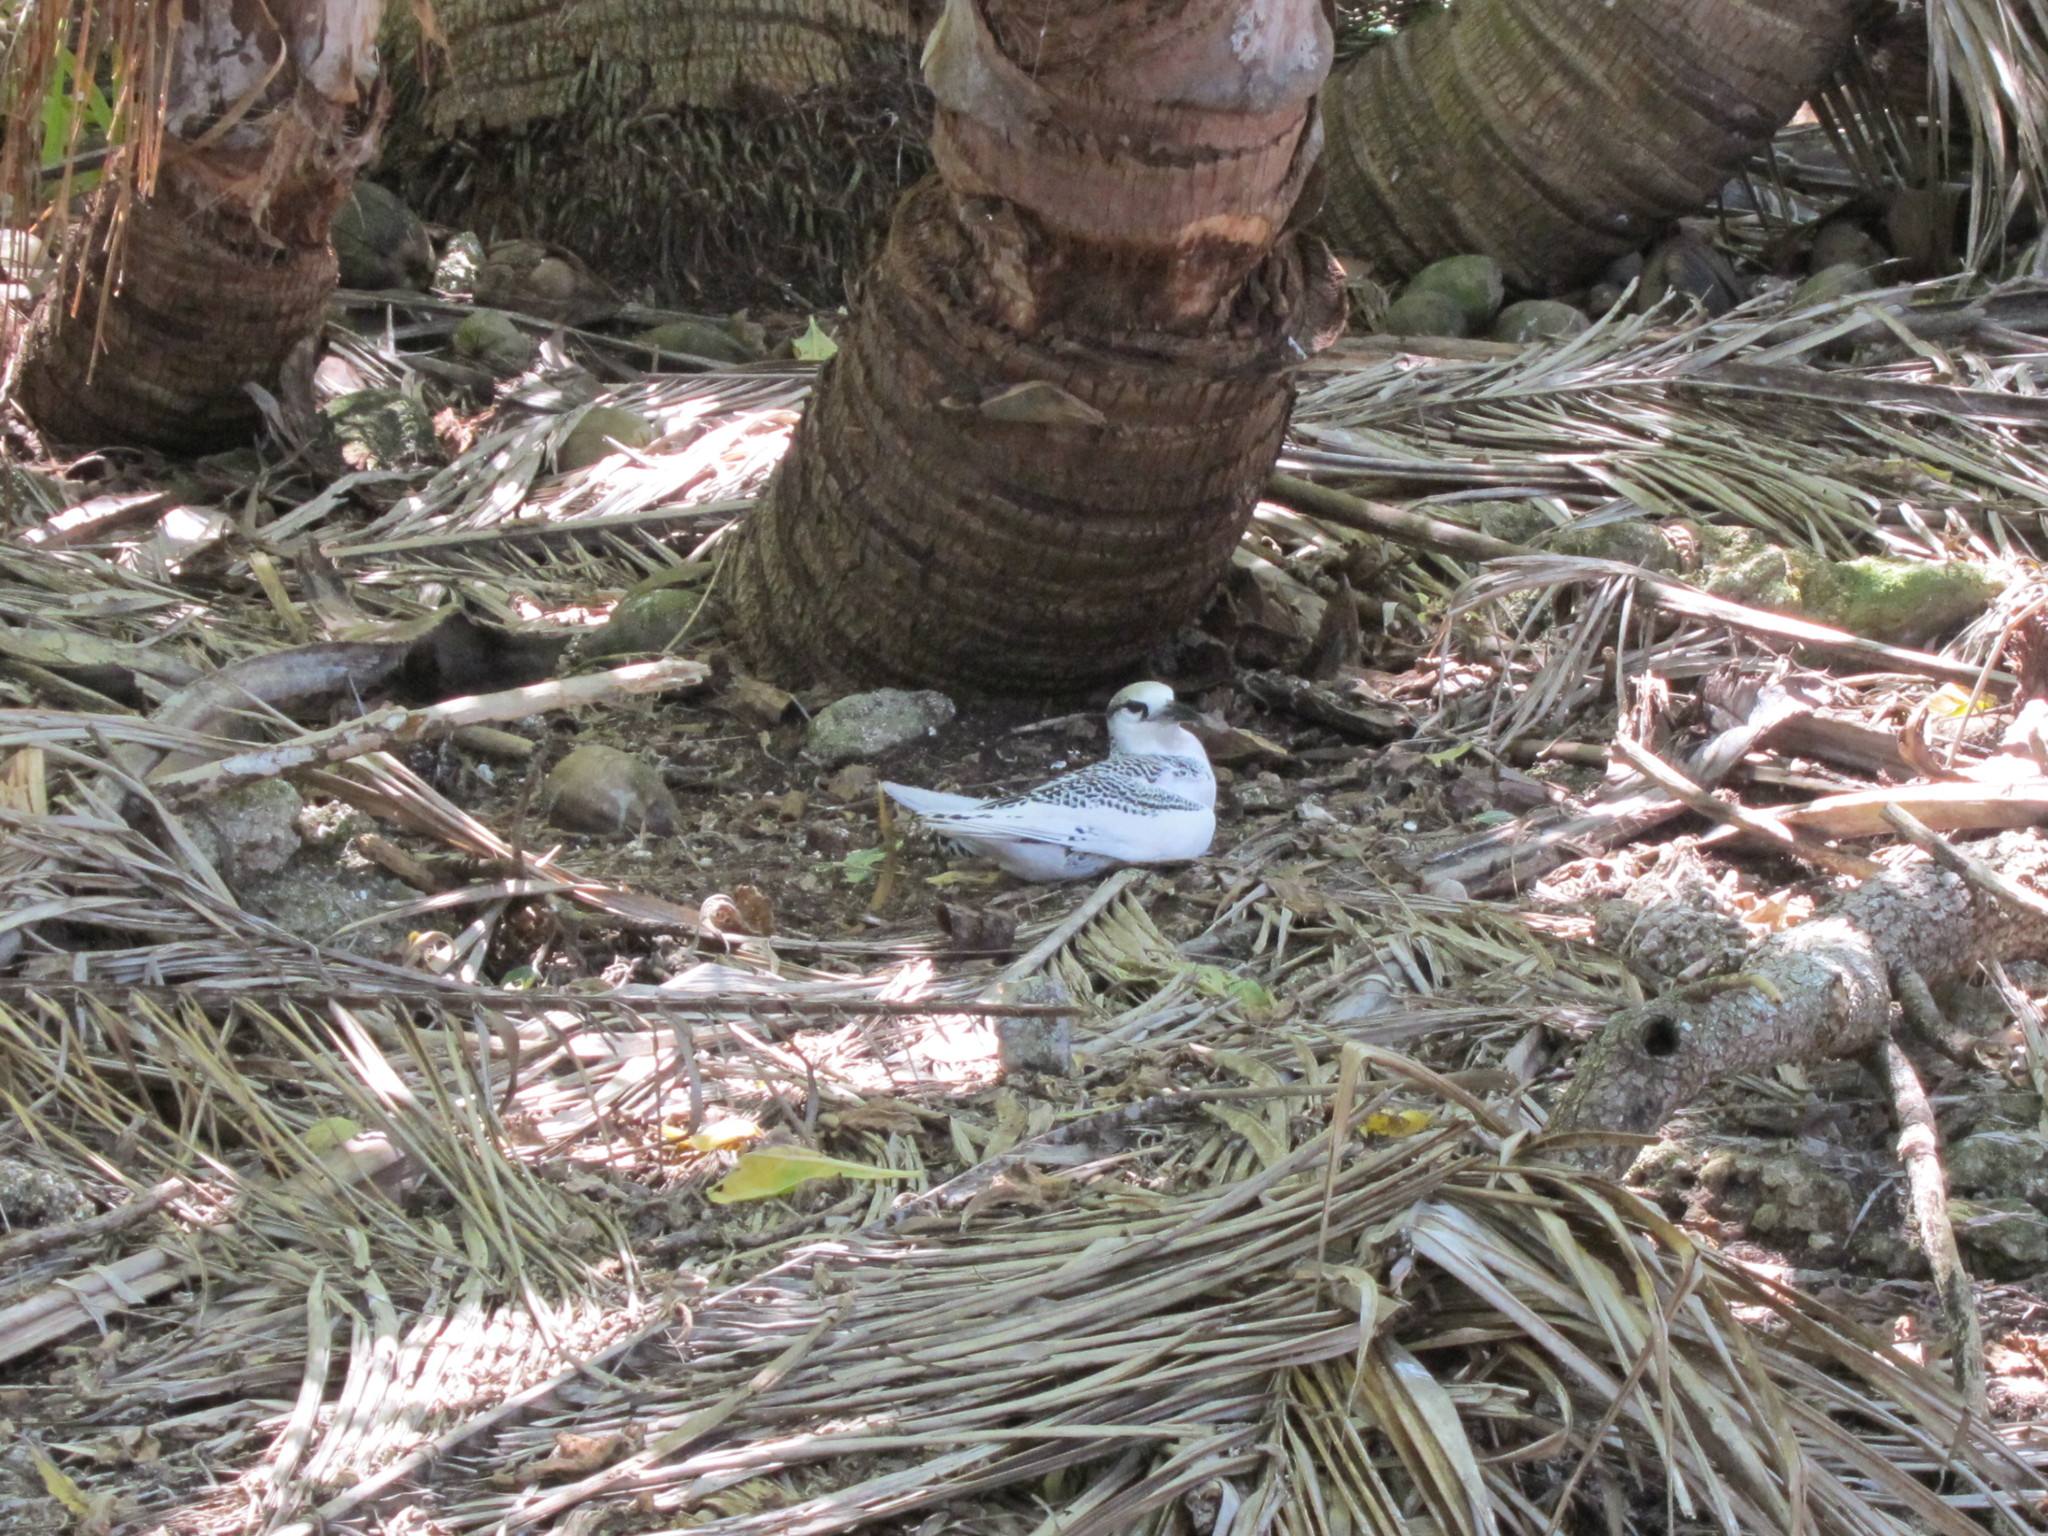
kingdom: Animalia
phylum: Chordata
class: Aves
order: Phaethontiformes
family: Phaethontidae
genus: Phaethon
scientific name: Phaethon rubricauda
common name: Red-tailed tropicbird
